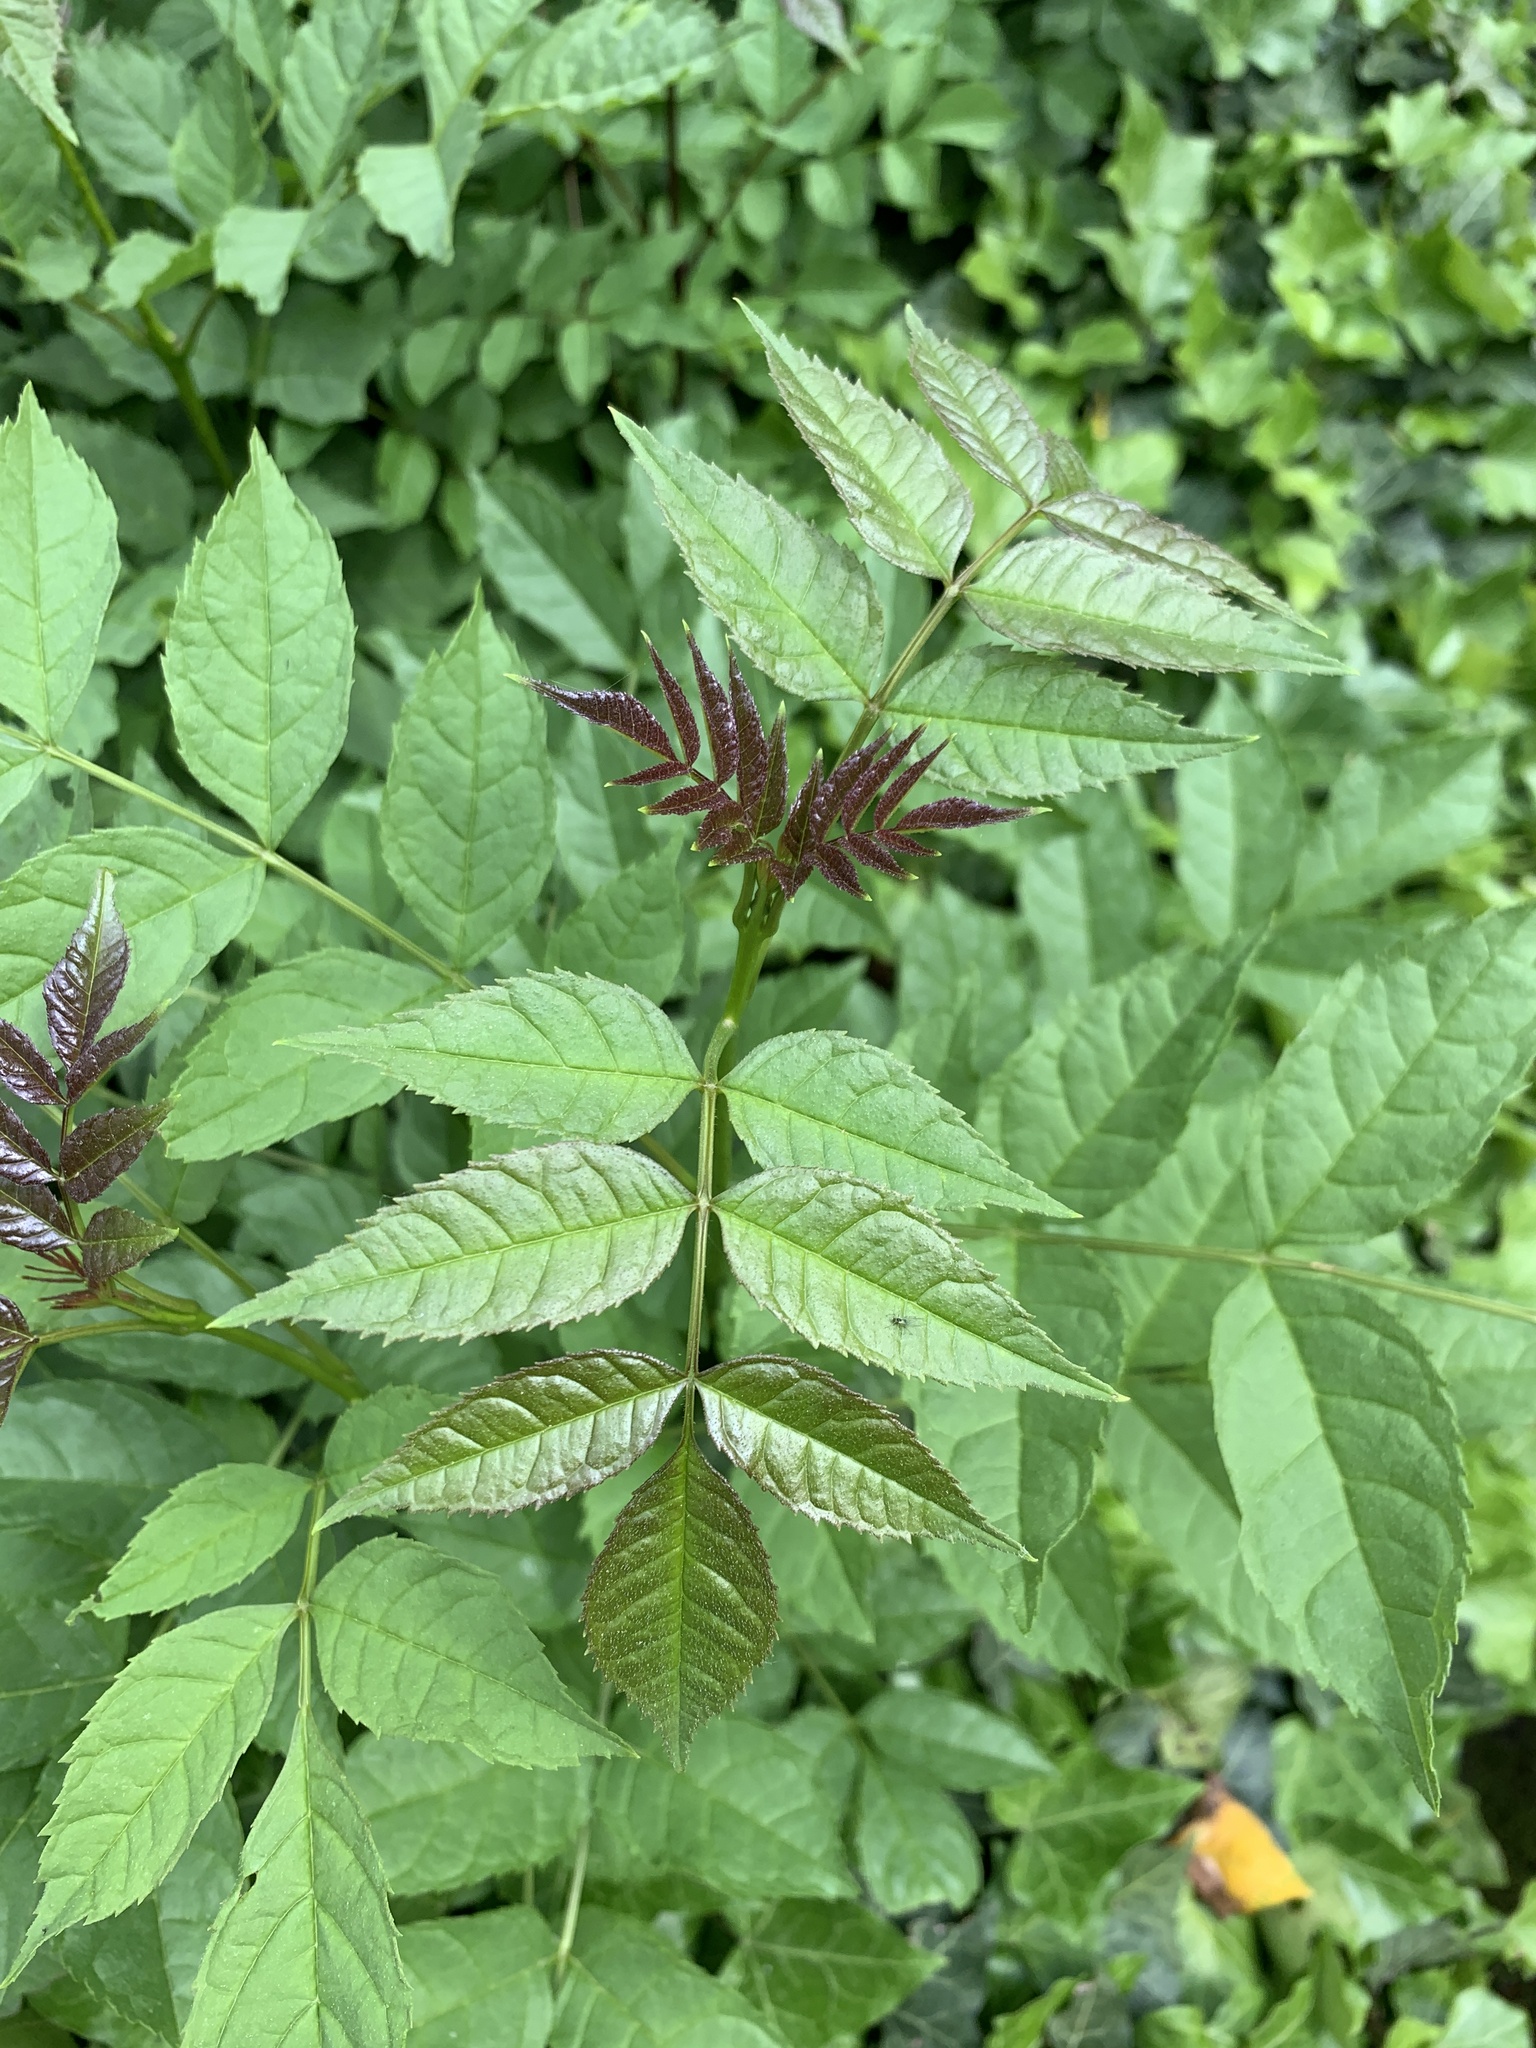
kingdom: Plantae
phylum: Tracheophyta
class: Magnoliopsida
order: Lamiales
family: Oleaceae
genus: Fraxinus
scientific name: Fraxinus excelsior
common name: European ash
